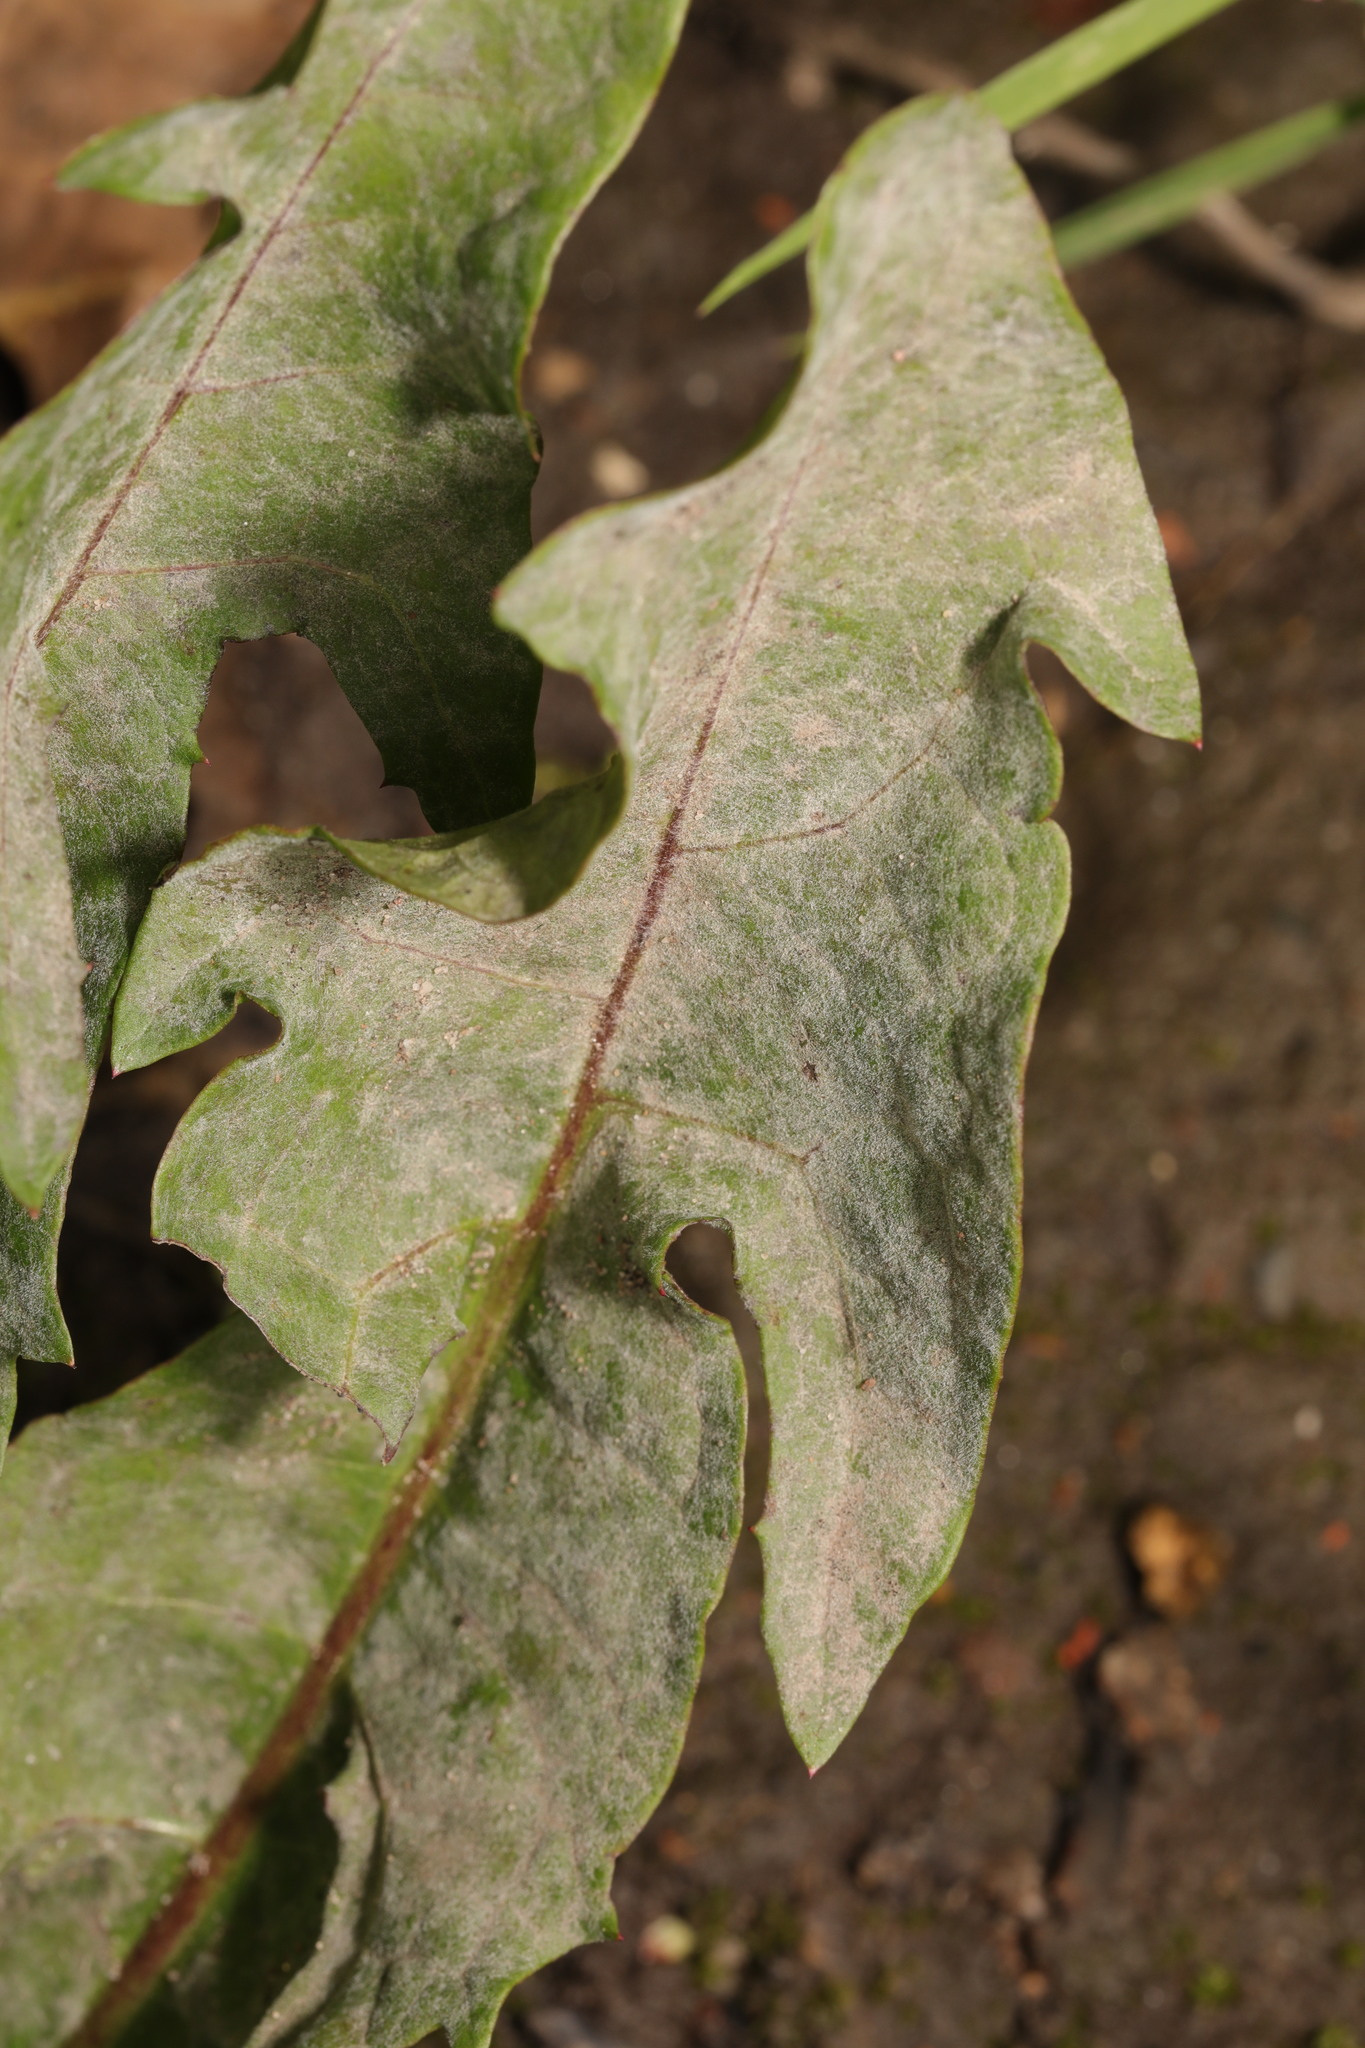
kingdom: Fungi
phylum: Ascomycota
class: Leotiomycetes
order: Helotiales
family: Erysiphaceae
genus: Podosphaera
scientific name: Podosphaera erigerontis-canadensis
